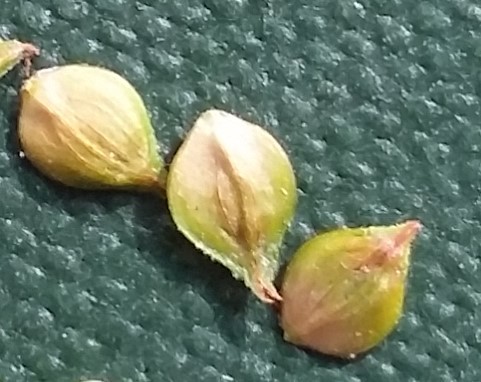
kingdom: Plantae
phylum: Tracheophyta
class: Liliopsida
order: Poales
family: Cyperaceae
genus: Carex
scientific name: Carex annectens
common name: Large fox sedge
